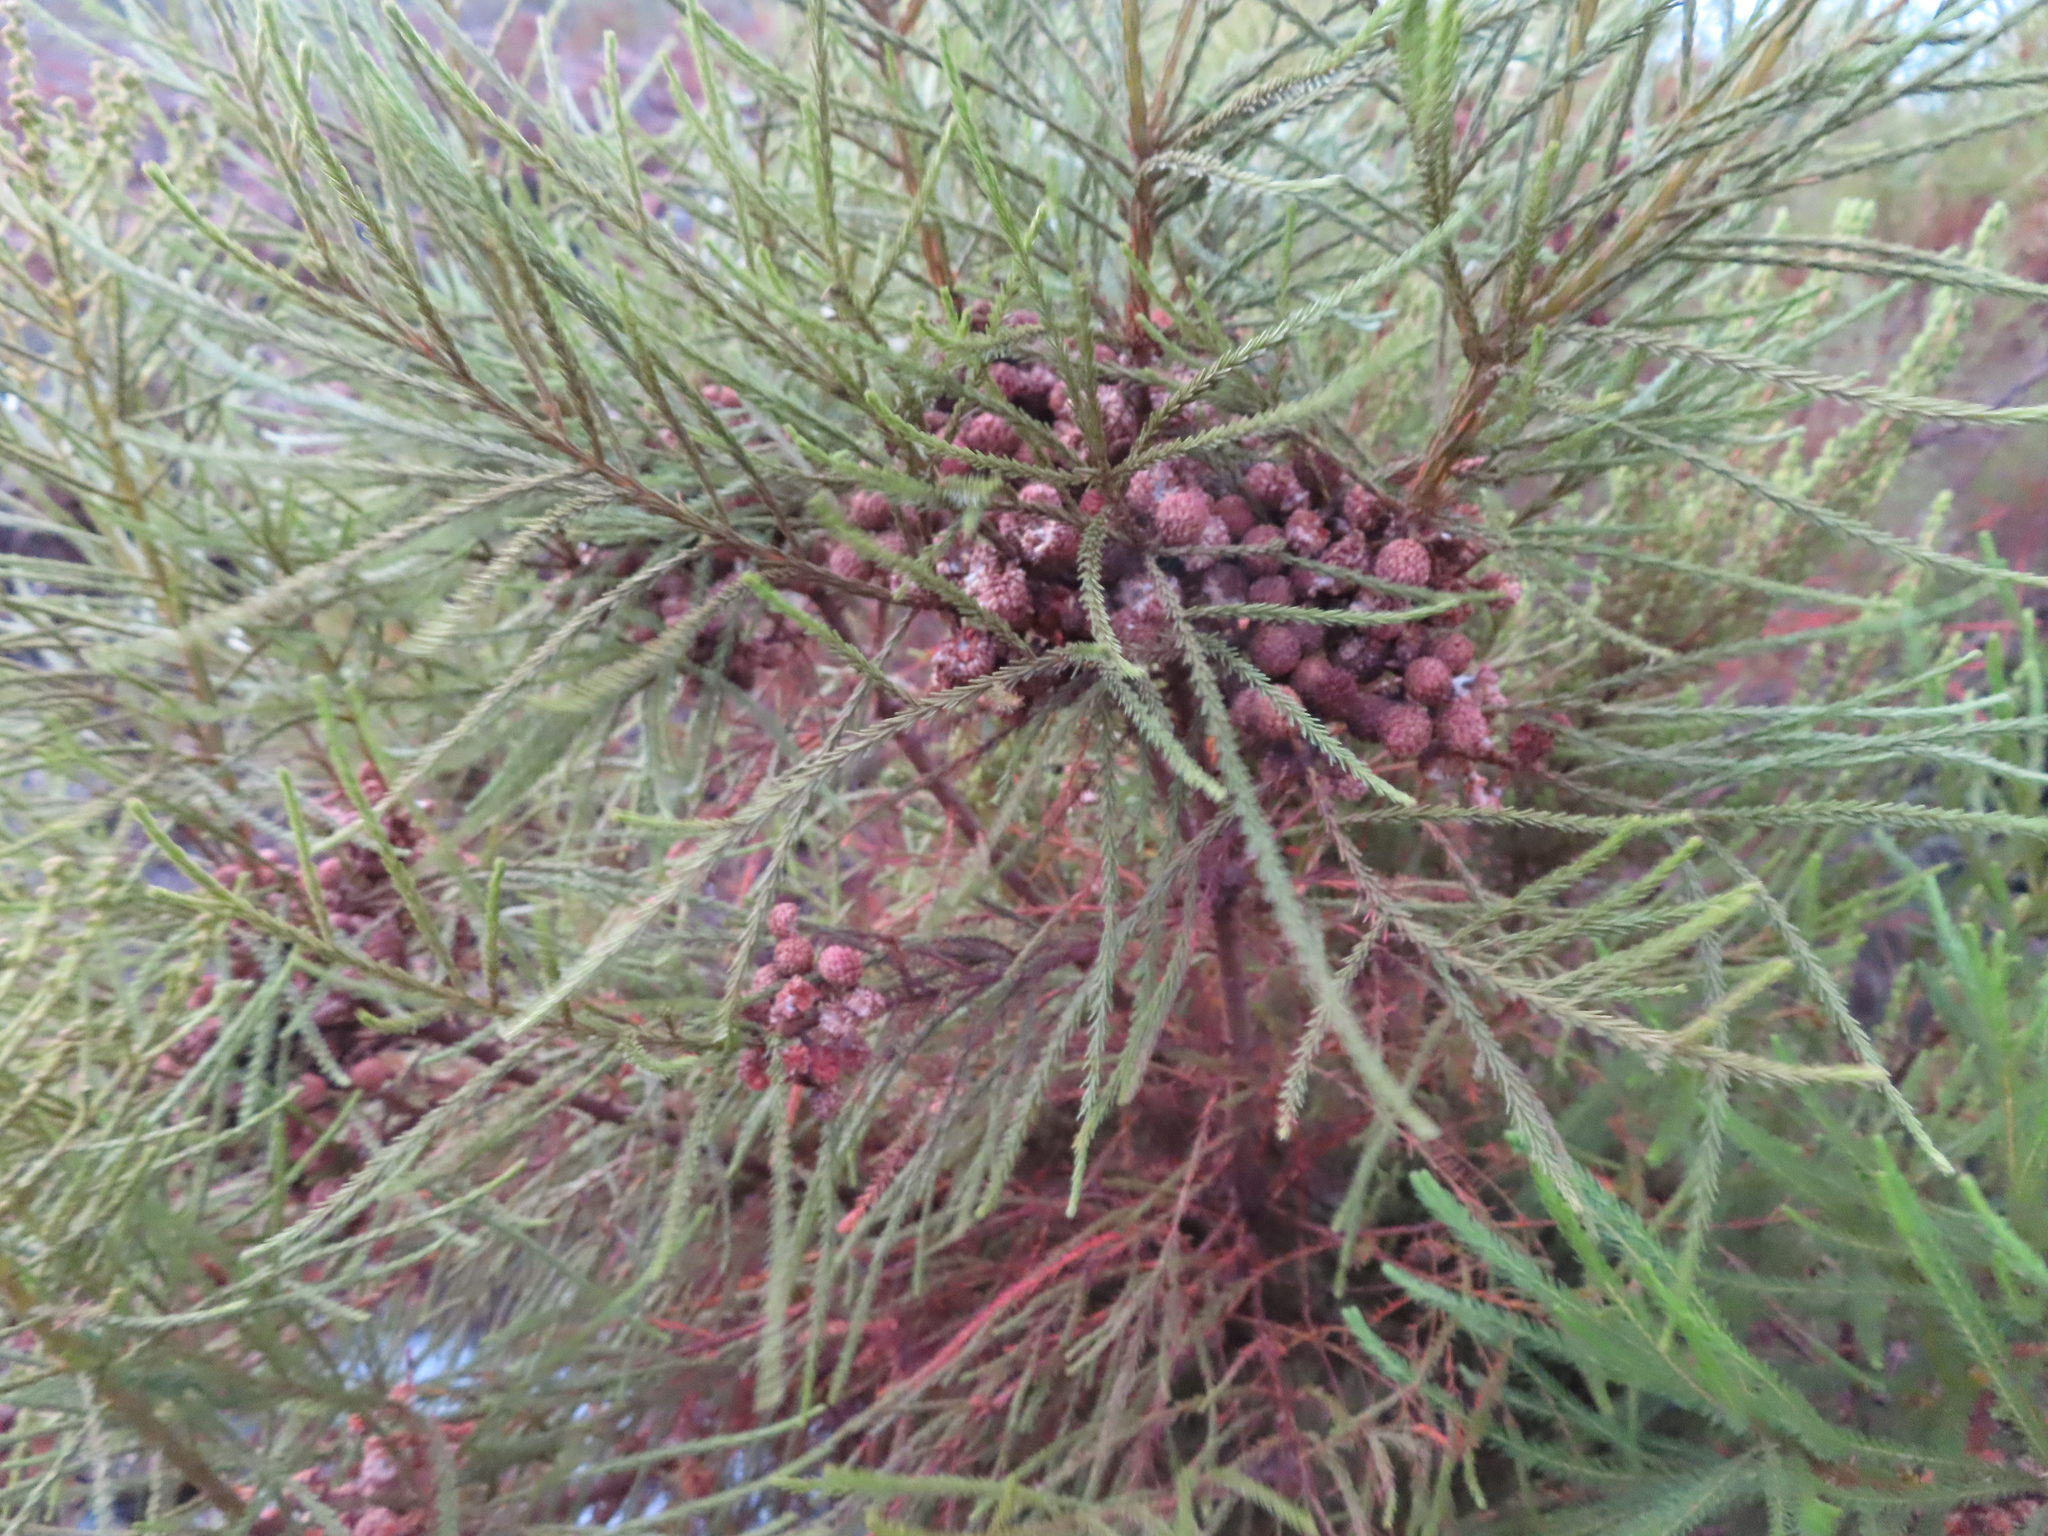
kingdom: Plantae
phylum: Tracheophyta
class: Magnoliopsida
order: Bruniales
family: Bruniaceae
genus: Berzelia
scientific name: Berzelia lanuginosa
